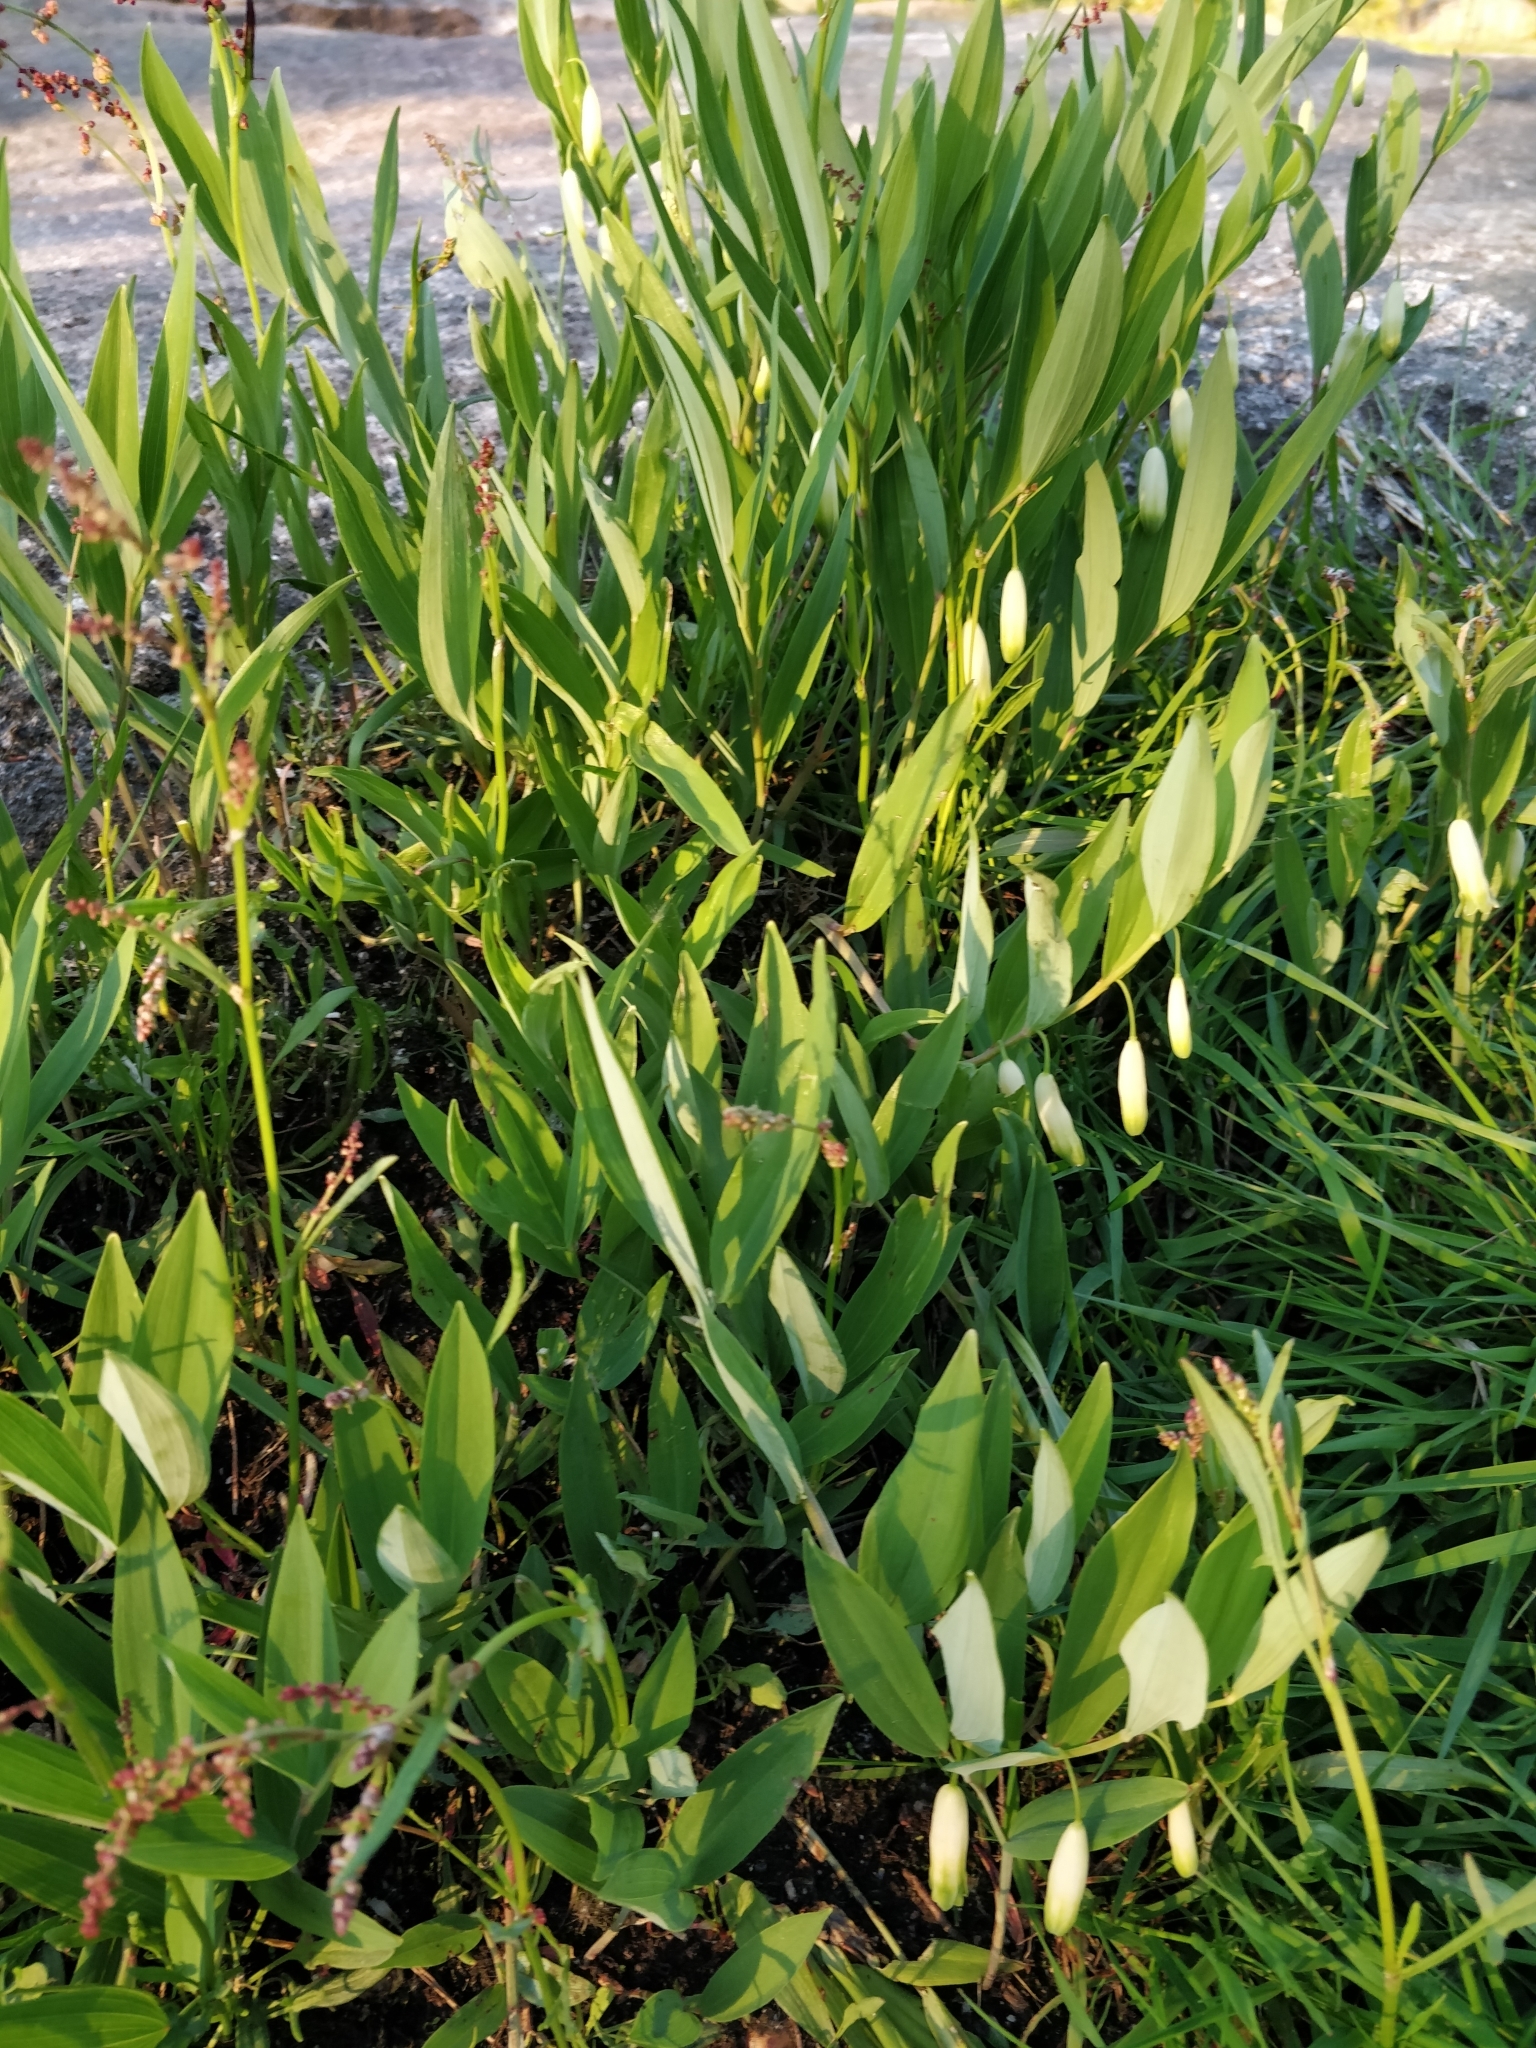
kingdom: Plantae
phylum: Tracheophyta
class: Liliopsida
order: Asparagales
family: Asparagaceae
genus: Polygonatum
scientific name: Polygonatum odoratum
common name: Angular solomon's-seal
